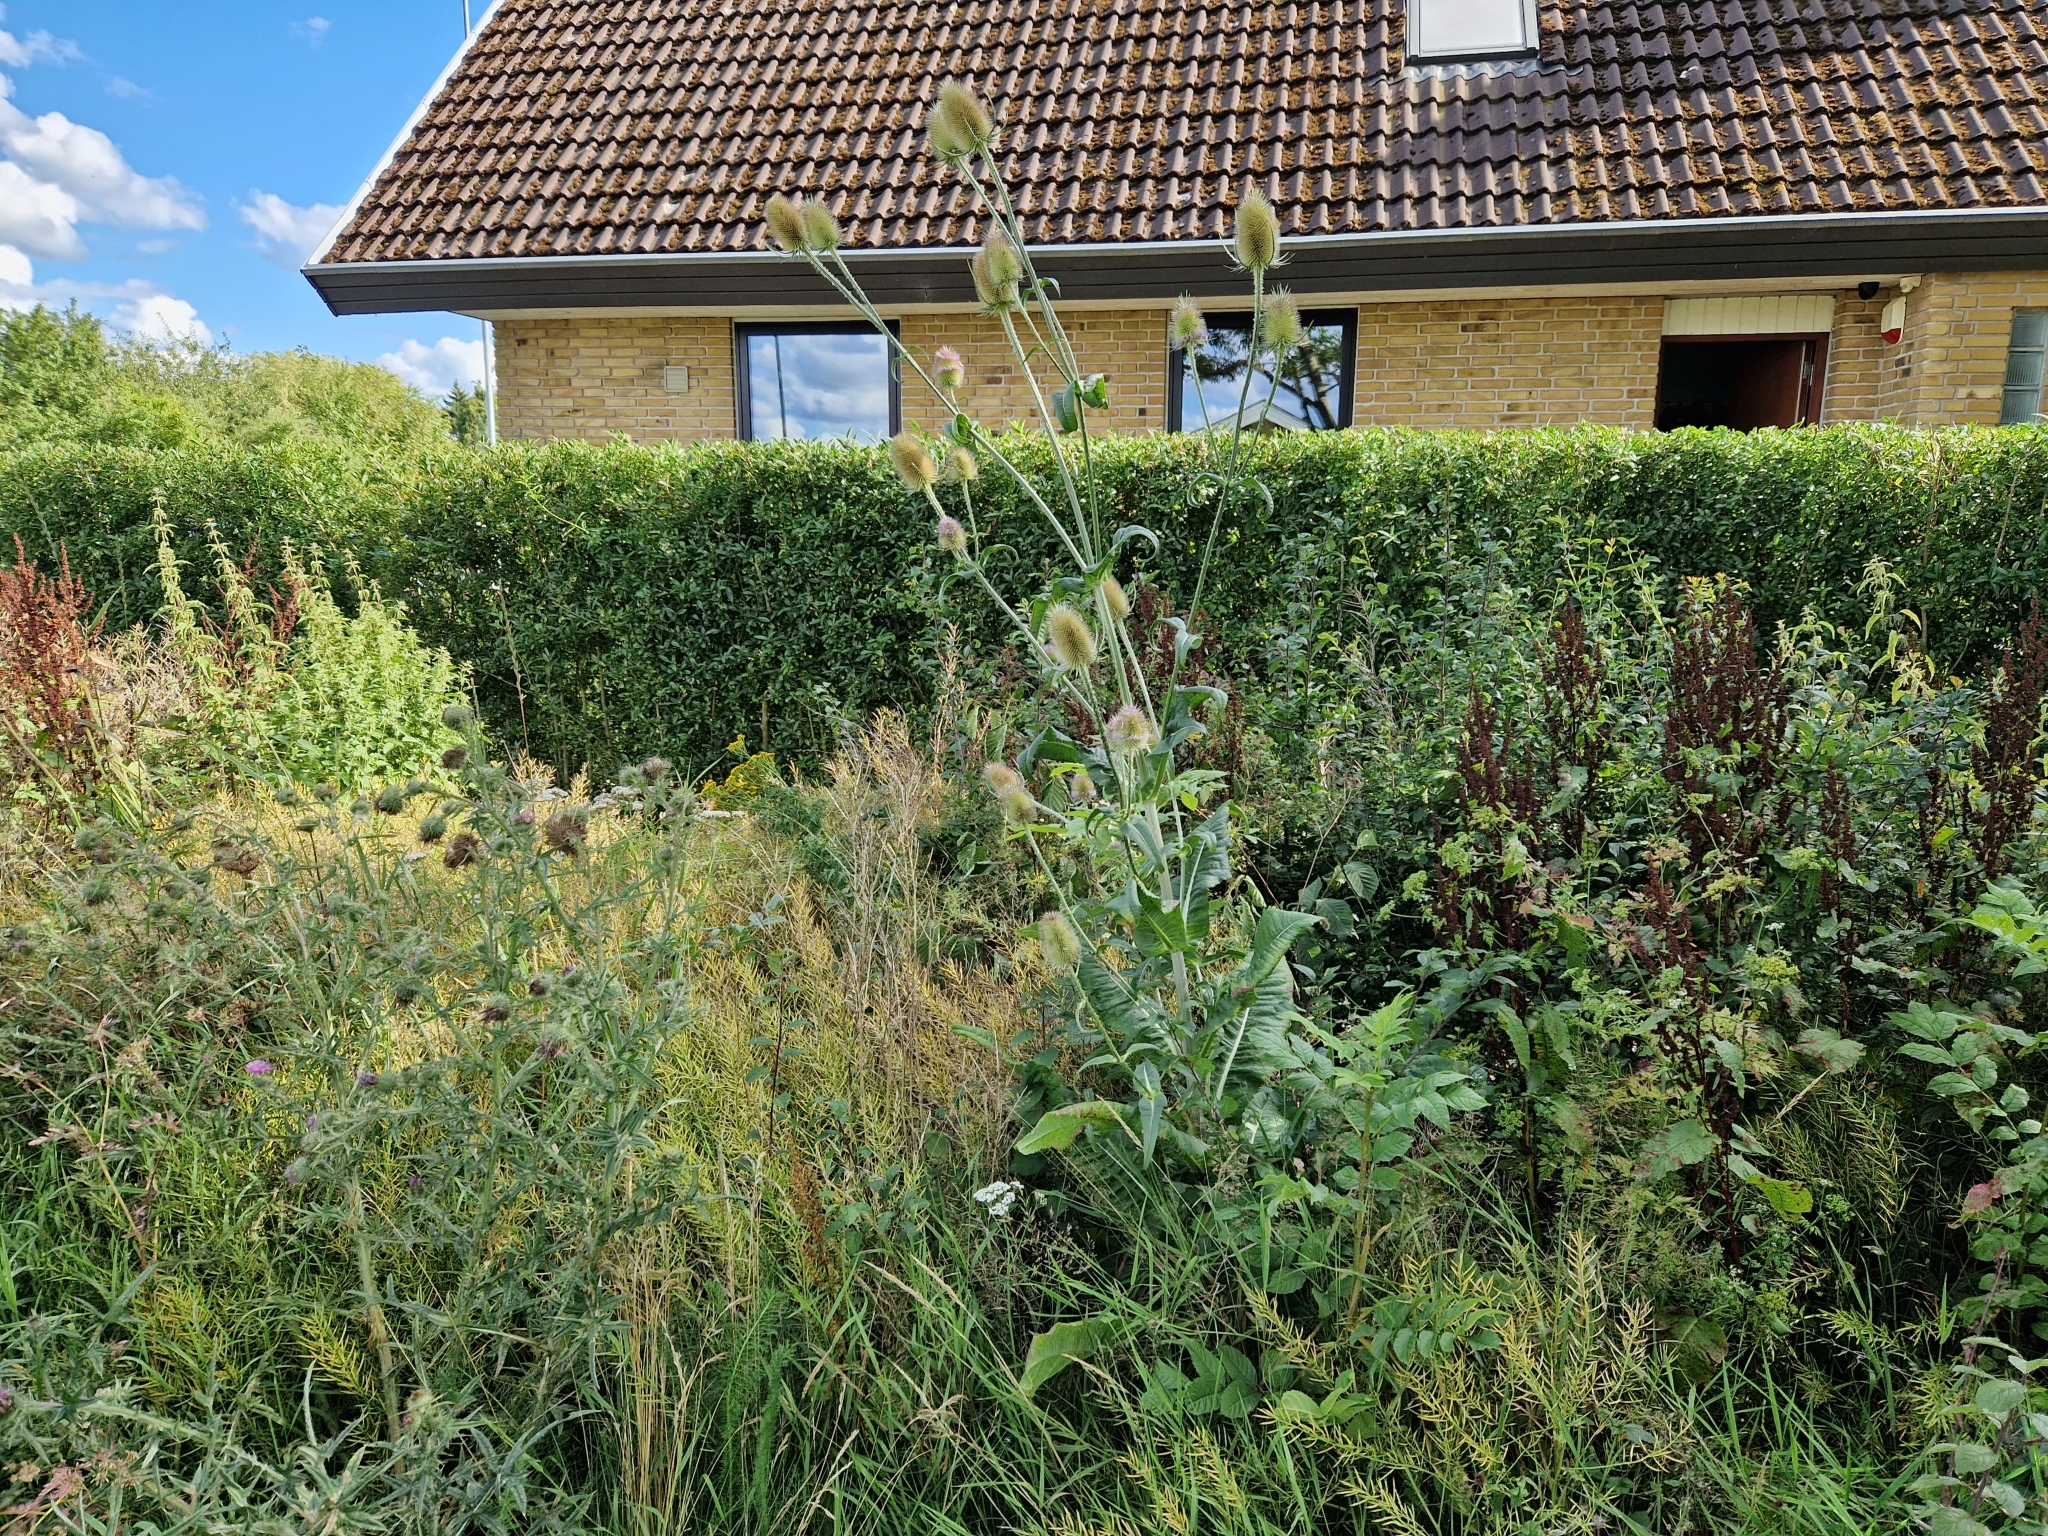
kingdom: Plantae
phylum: Tracheophyta
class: Magnoliopsida
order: Dipsacales
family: Caprifoliaceae
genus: Dipsacus
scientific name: Dipsacus fullonum
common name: Teasel
